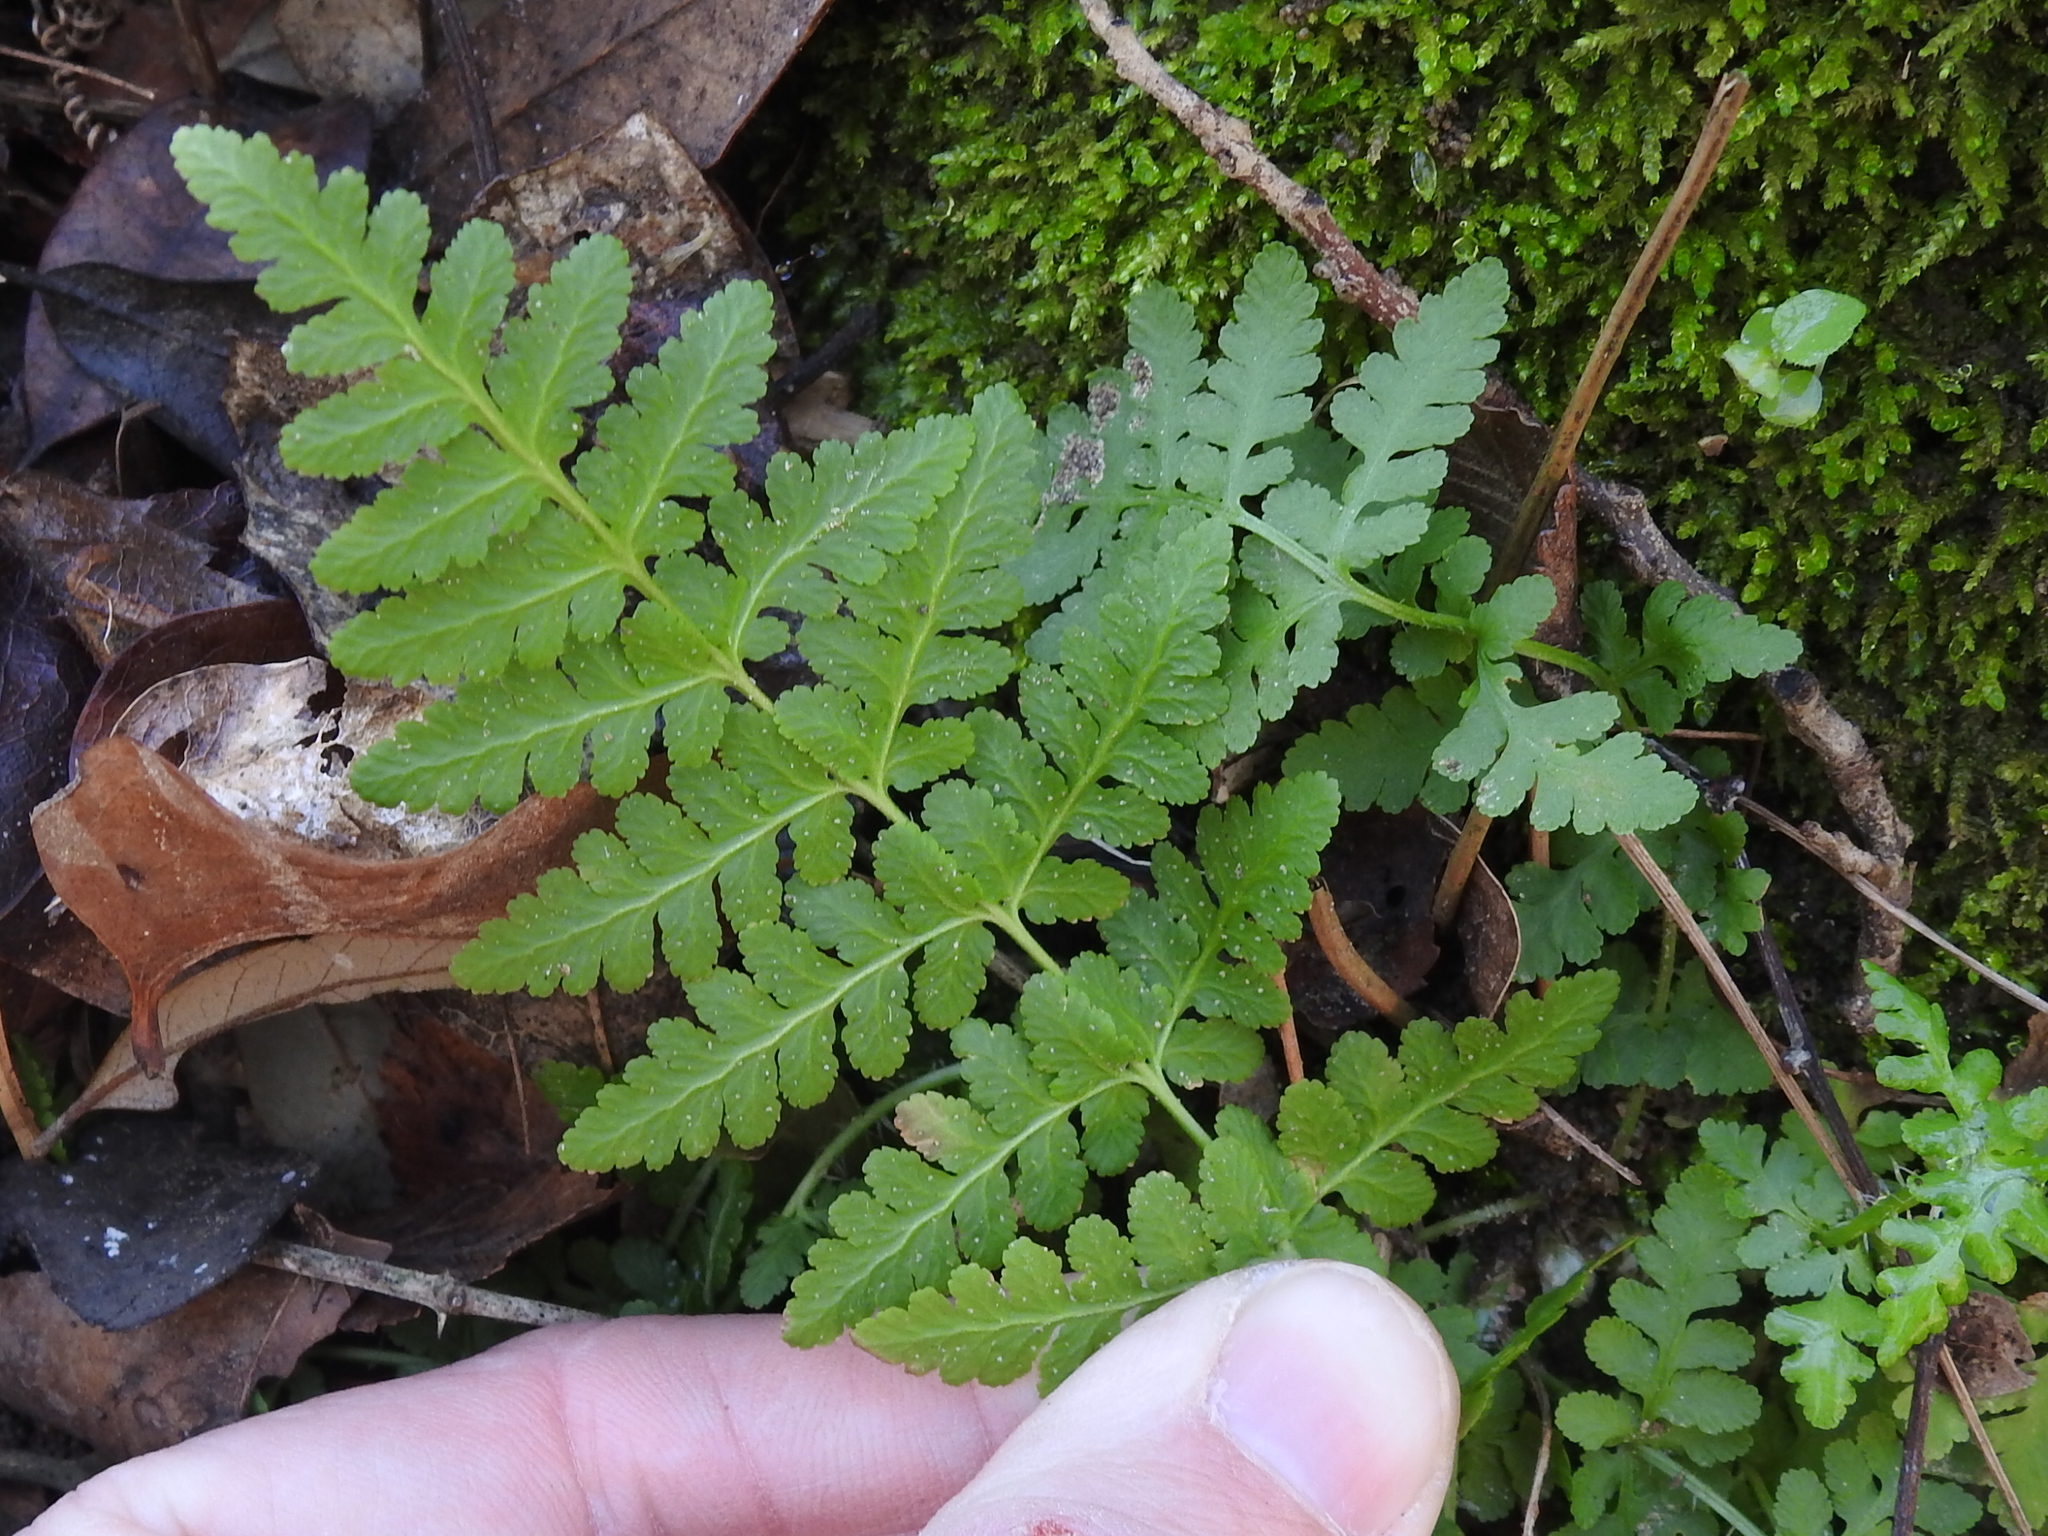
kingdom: Plantae
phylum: Tracheophyta
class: Polypodiopsida
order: Polypodiales
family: Woodsiaceae
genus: Physematium
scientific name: Physematium obtusum
